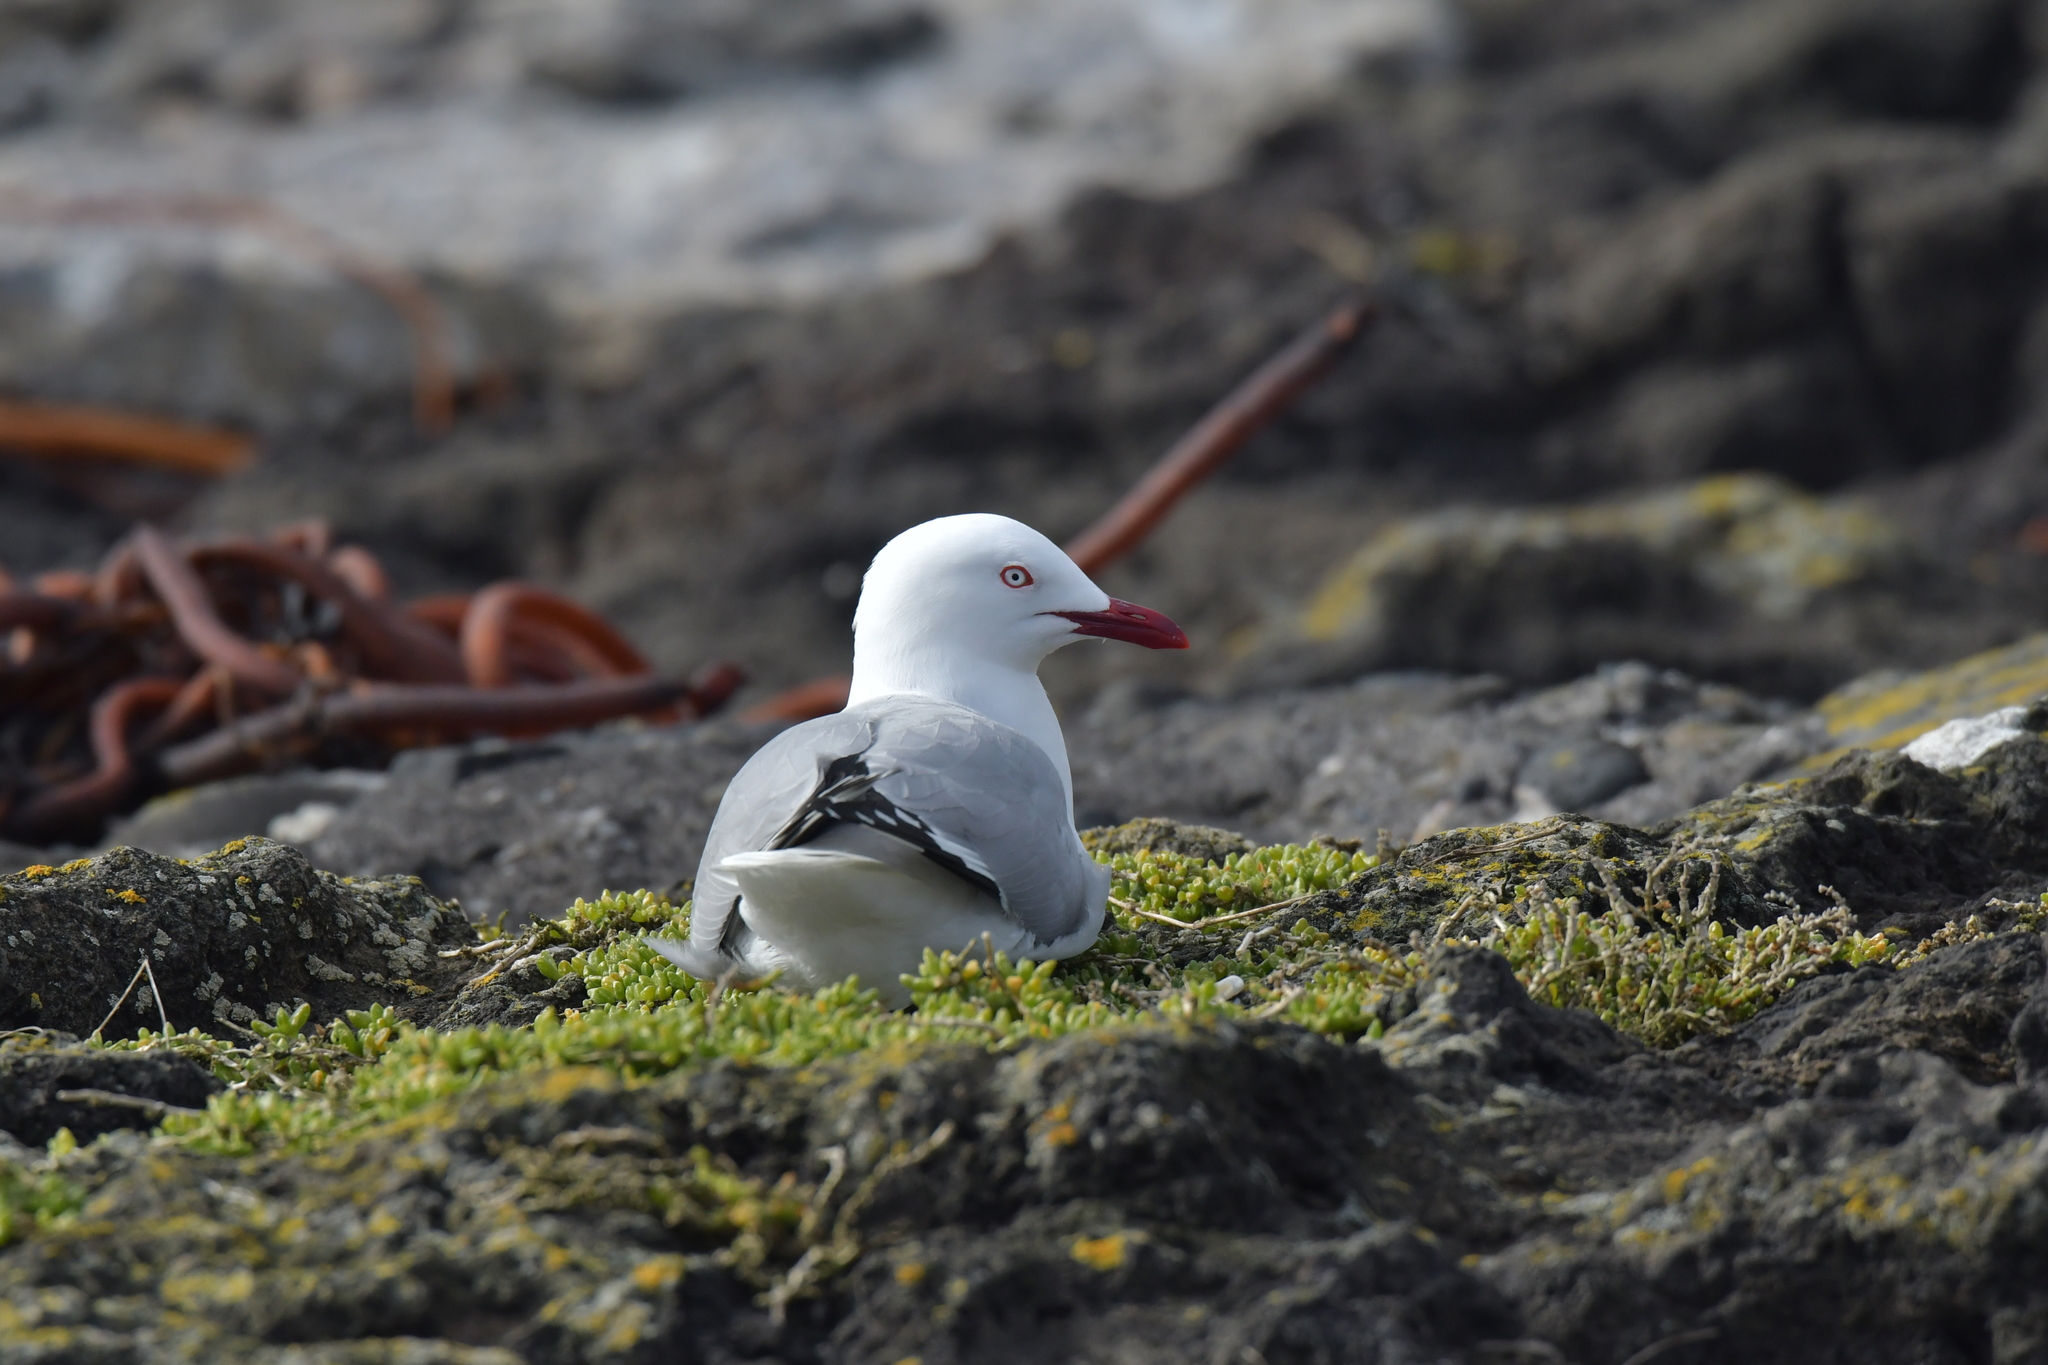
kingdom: Animalia
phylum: Chordata
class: Aves
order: Charadriiformes
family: Laridae
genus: Chroicocephalus
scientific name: Chroicocephalus novaehollandiae
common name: Silver gull
